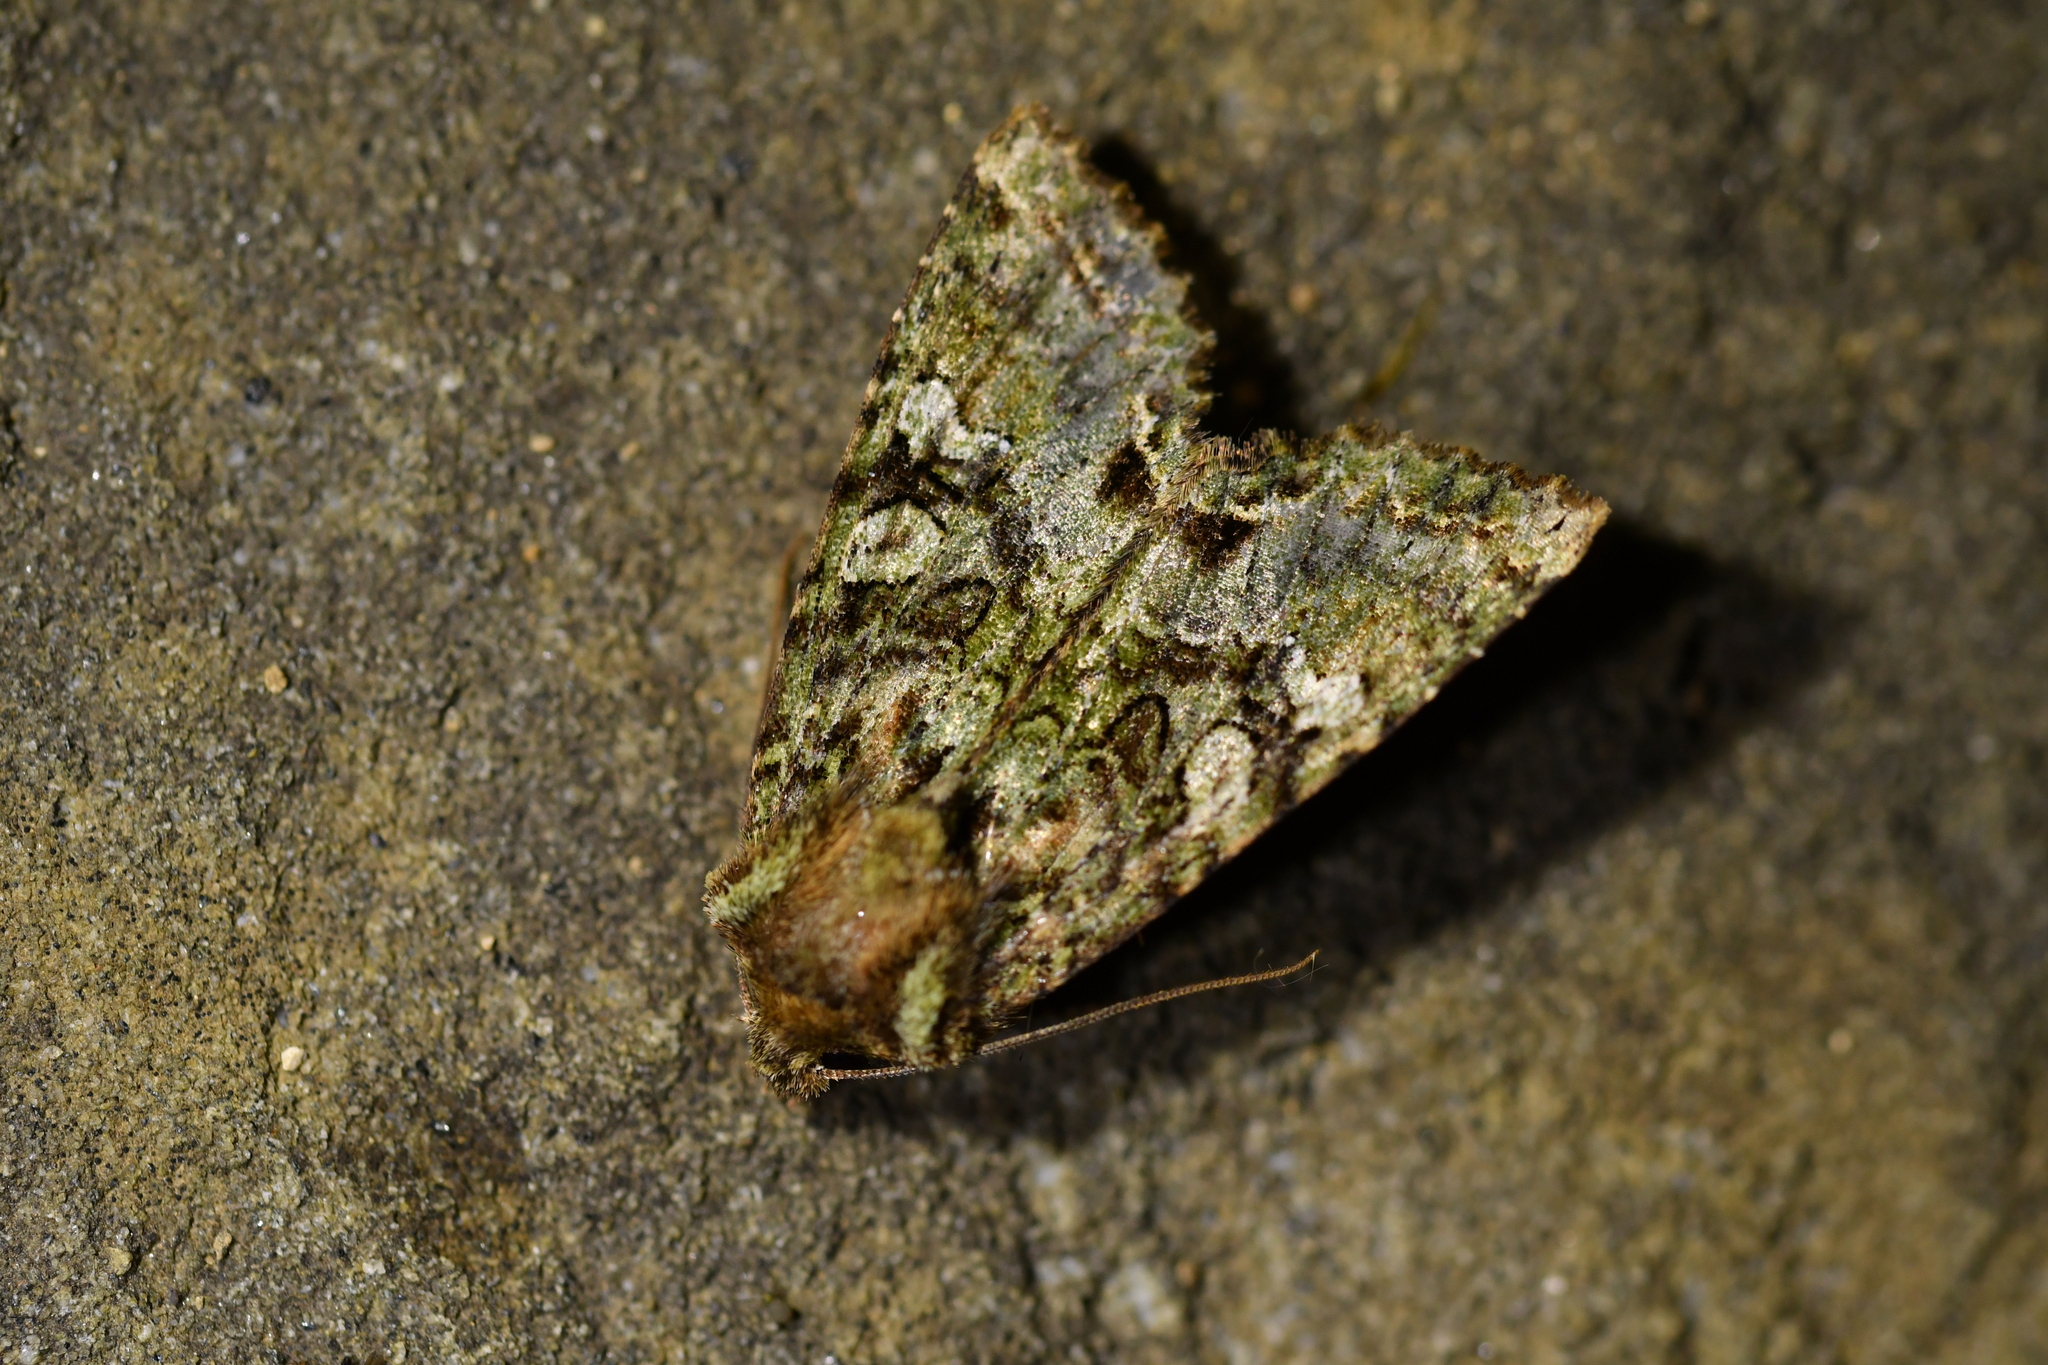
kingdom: Animalia
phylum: Arthropoda
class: Insecta
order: Lepidoptera
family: Noctuidae
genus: Meterana
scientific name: Meterana
